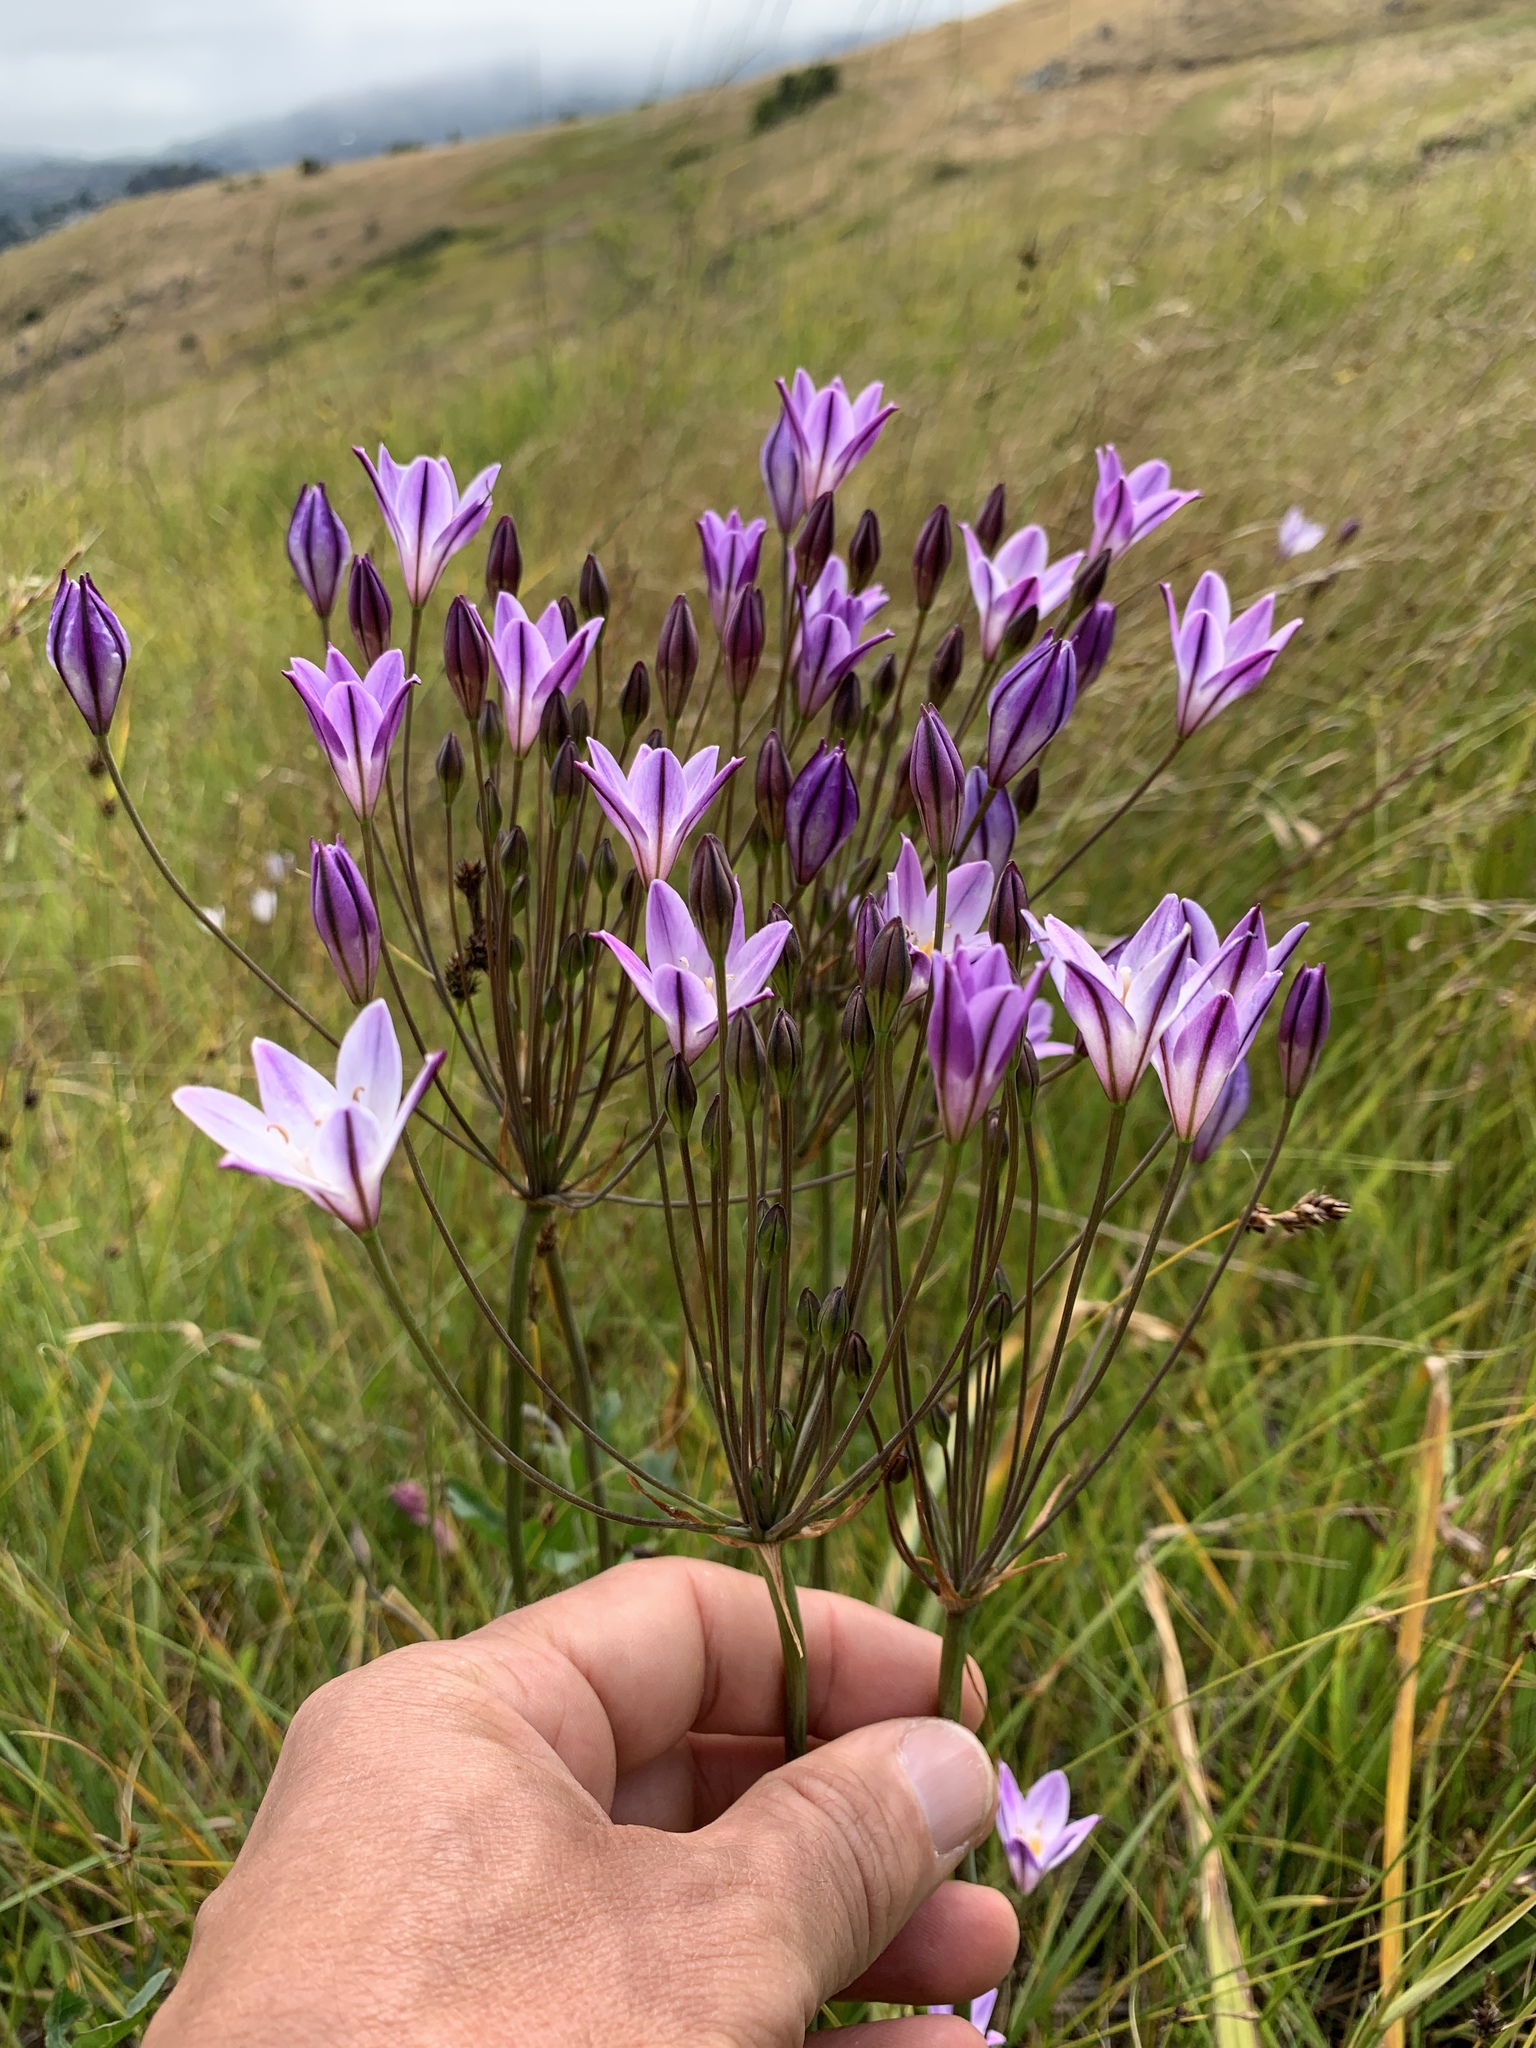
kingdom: Plantae
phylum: Tracheophyta
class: Liliopsida
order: Asparagales
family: Asparagaceae
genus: Triteleia
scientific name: Triteleia peduncularis
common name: Long-ray brodiaea
